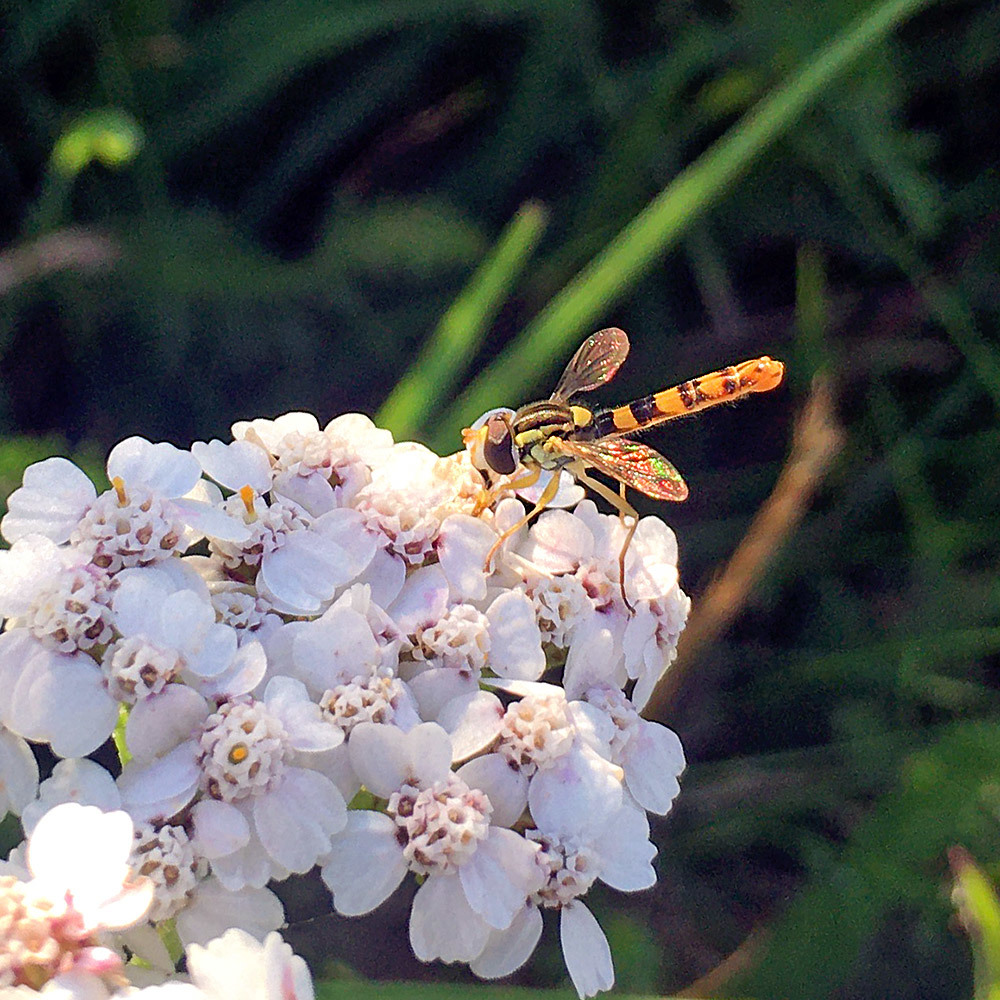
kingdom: Animalia
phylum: Arthropoda
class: Insecta
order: Diptera
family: Syrphidae
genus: Sphaerophoria
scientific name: Sphaerophoria scripta
